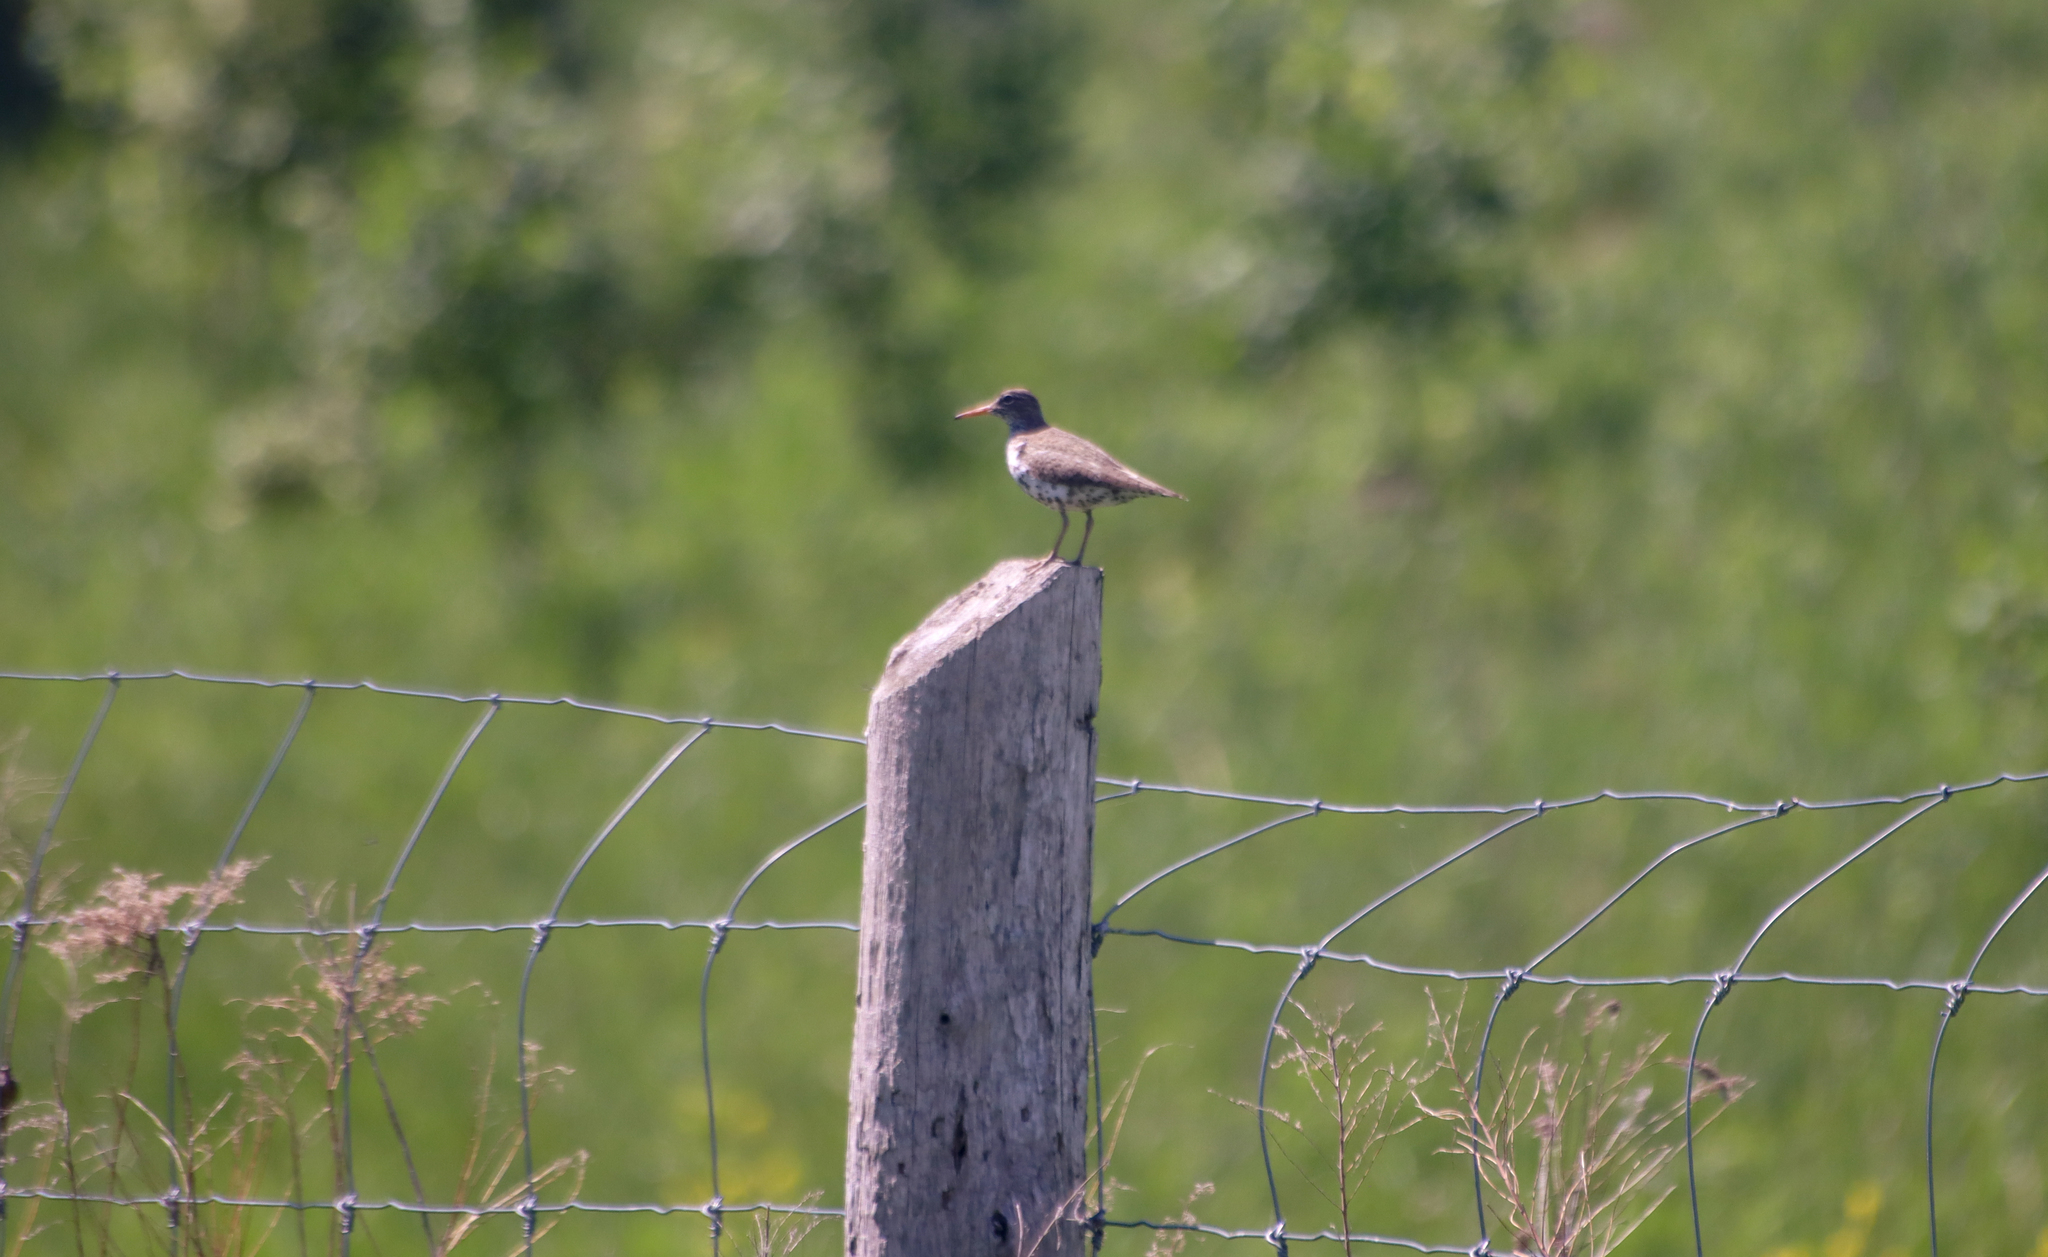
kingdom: Animalia
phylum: Chordata
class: Aves
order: Charadriiformes
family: Scolopacidae
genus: Actitis
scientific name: Actitis macularius
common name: Spotted sandpiper
